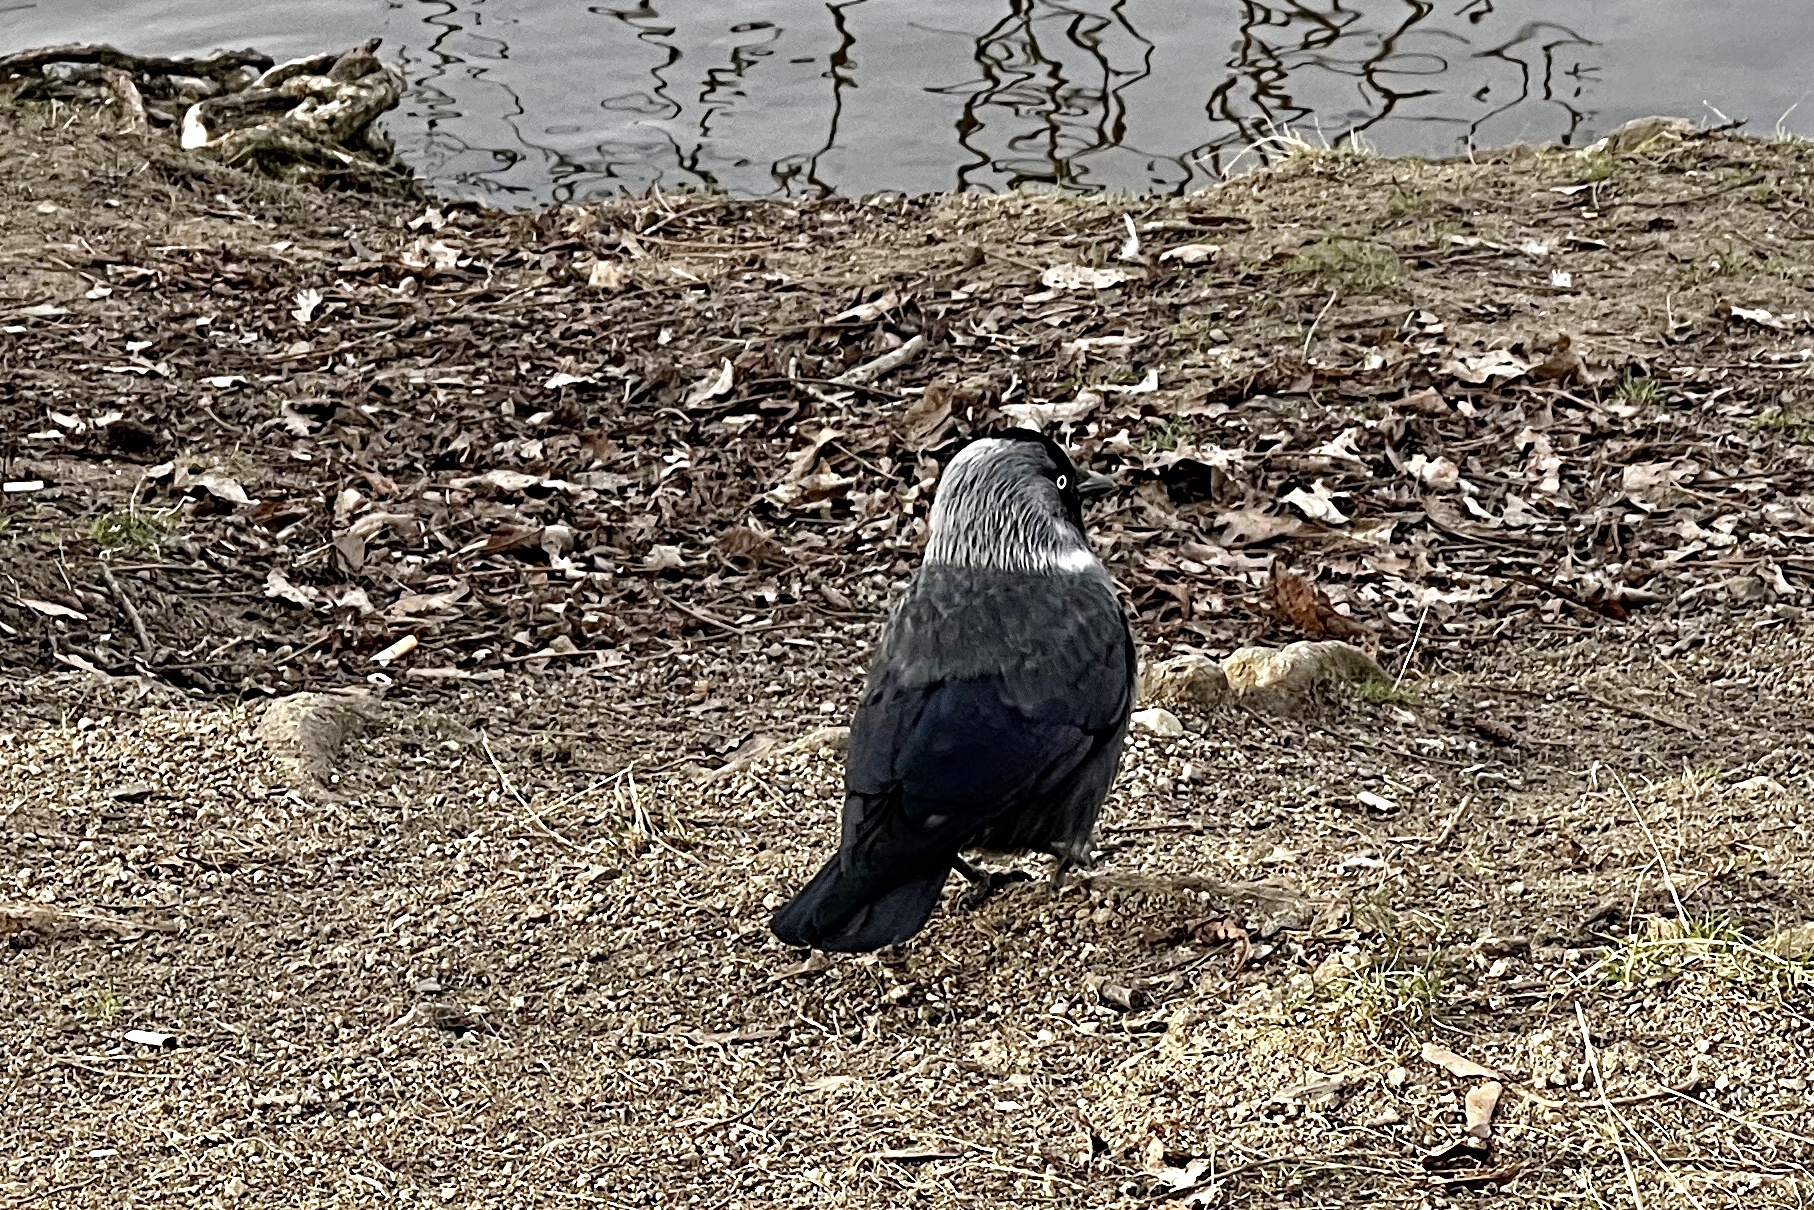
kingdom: Animalia
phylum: Chordata
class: Aves
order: Passeriformes
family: Corvidae
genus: Coloeus
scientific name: Coloeus monedula
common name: Western jackdaw
